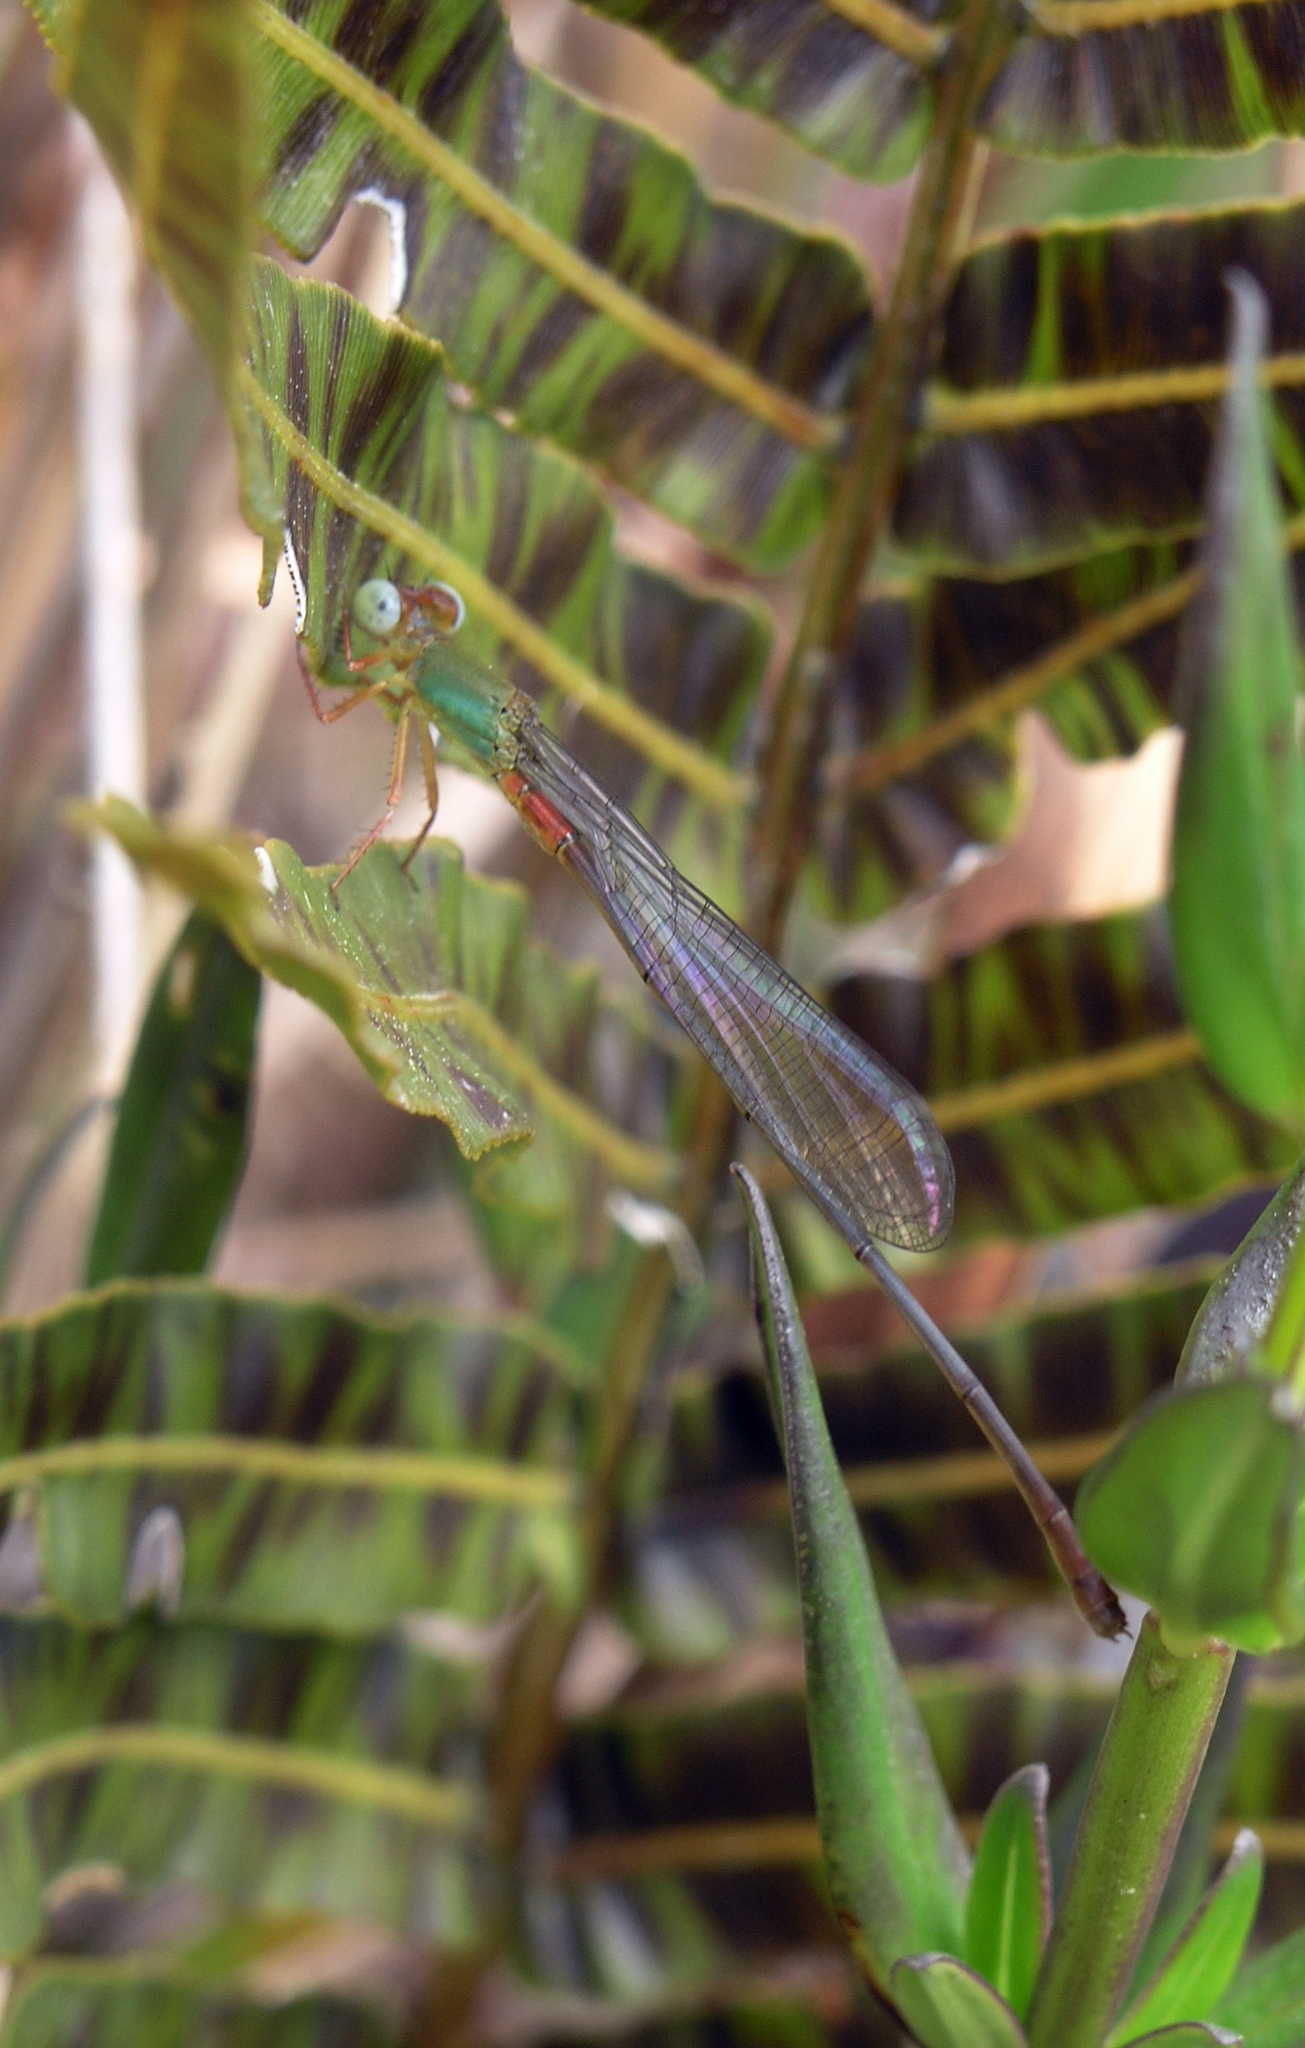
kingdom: Animalia
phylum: Arthropoda
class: Insecta
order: Odonata
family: Coenagrionidae
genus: Ceriagrion
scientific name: Ceriagrion cerinorubellum
